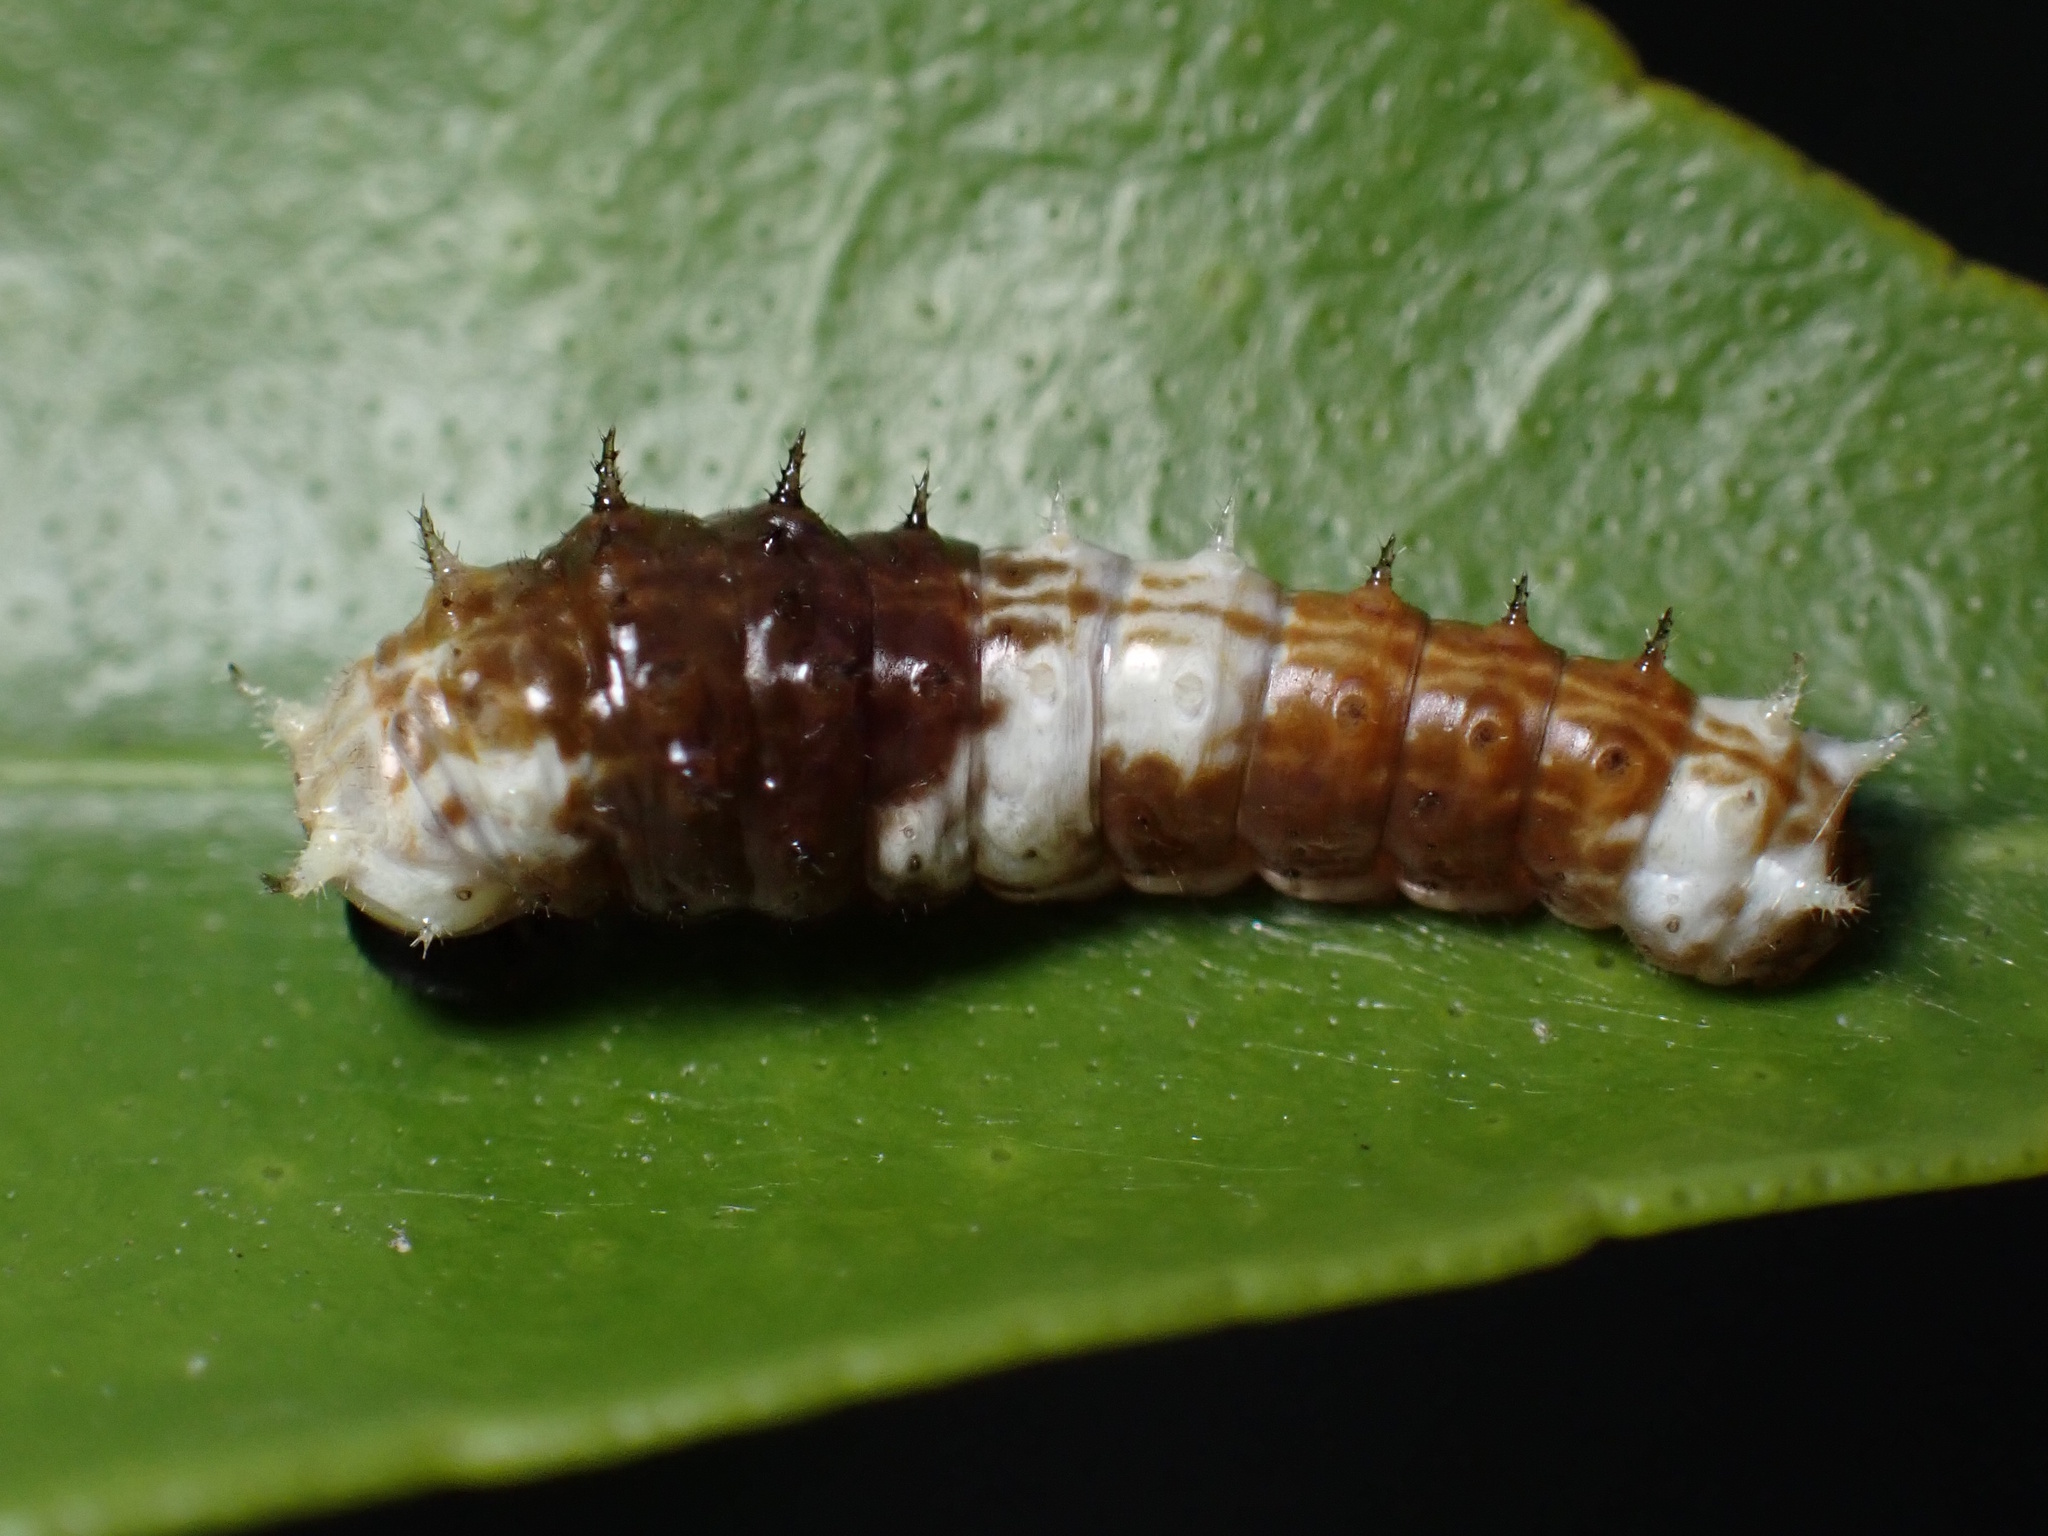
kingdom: Animalia
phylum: Arthropoda
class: Insecta
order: Lepidoptera
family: Papilionidae
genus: Papilio
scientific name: Papilio aegeus
